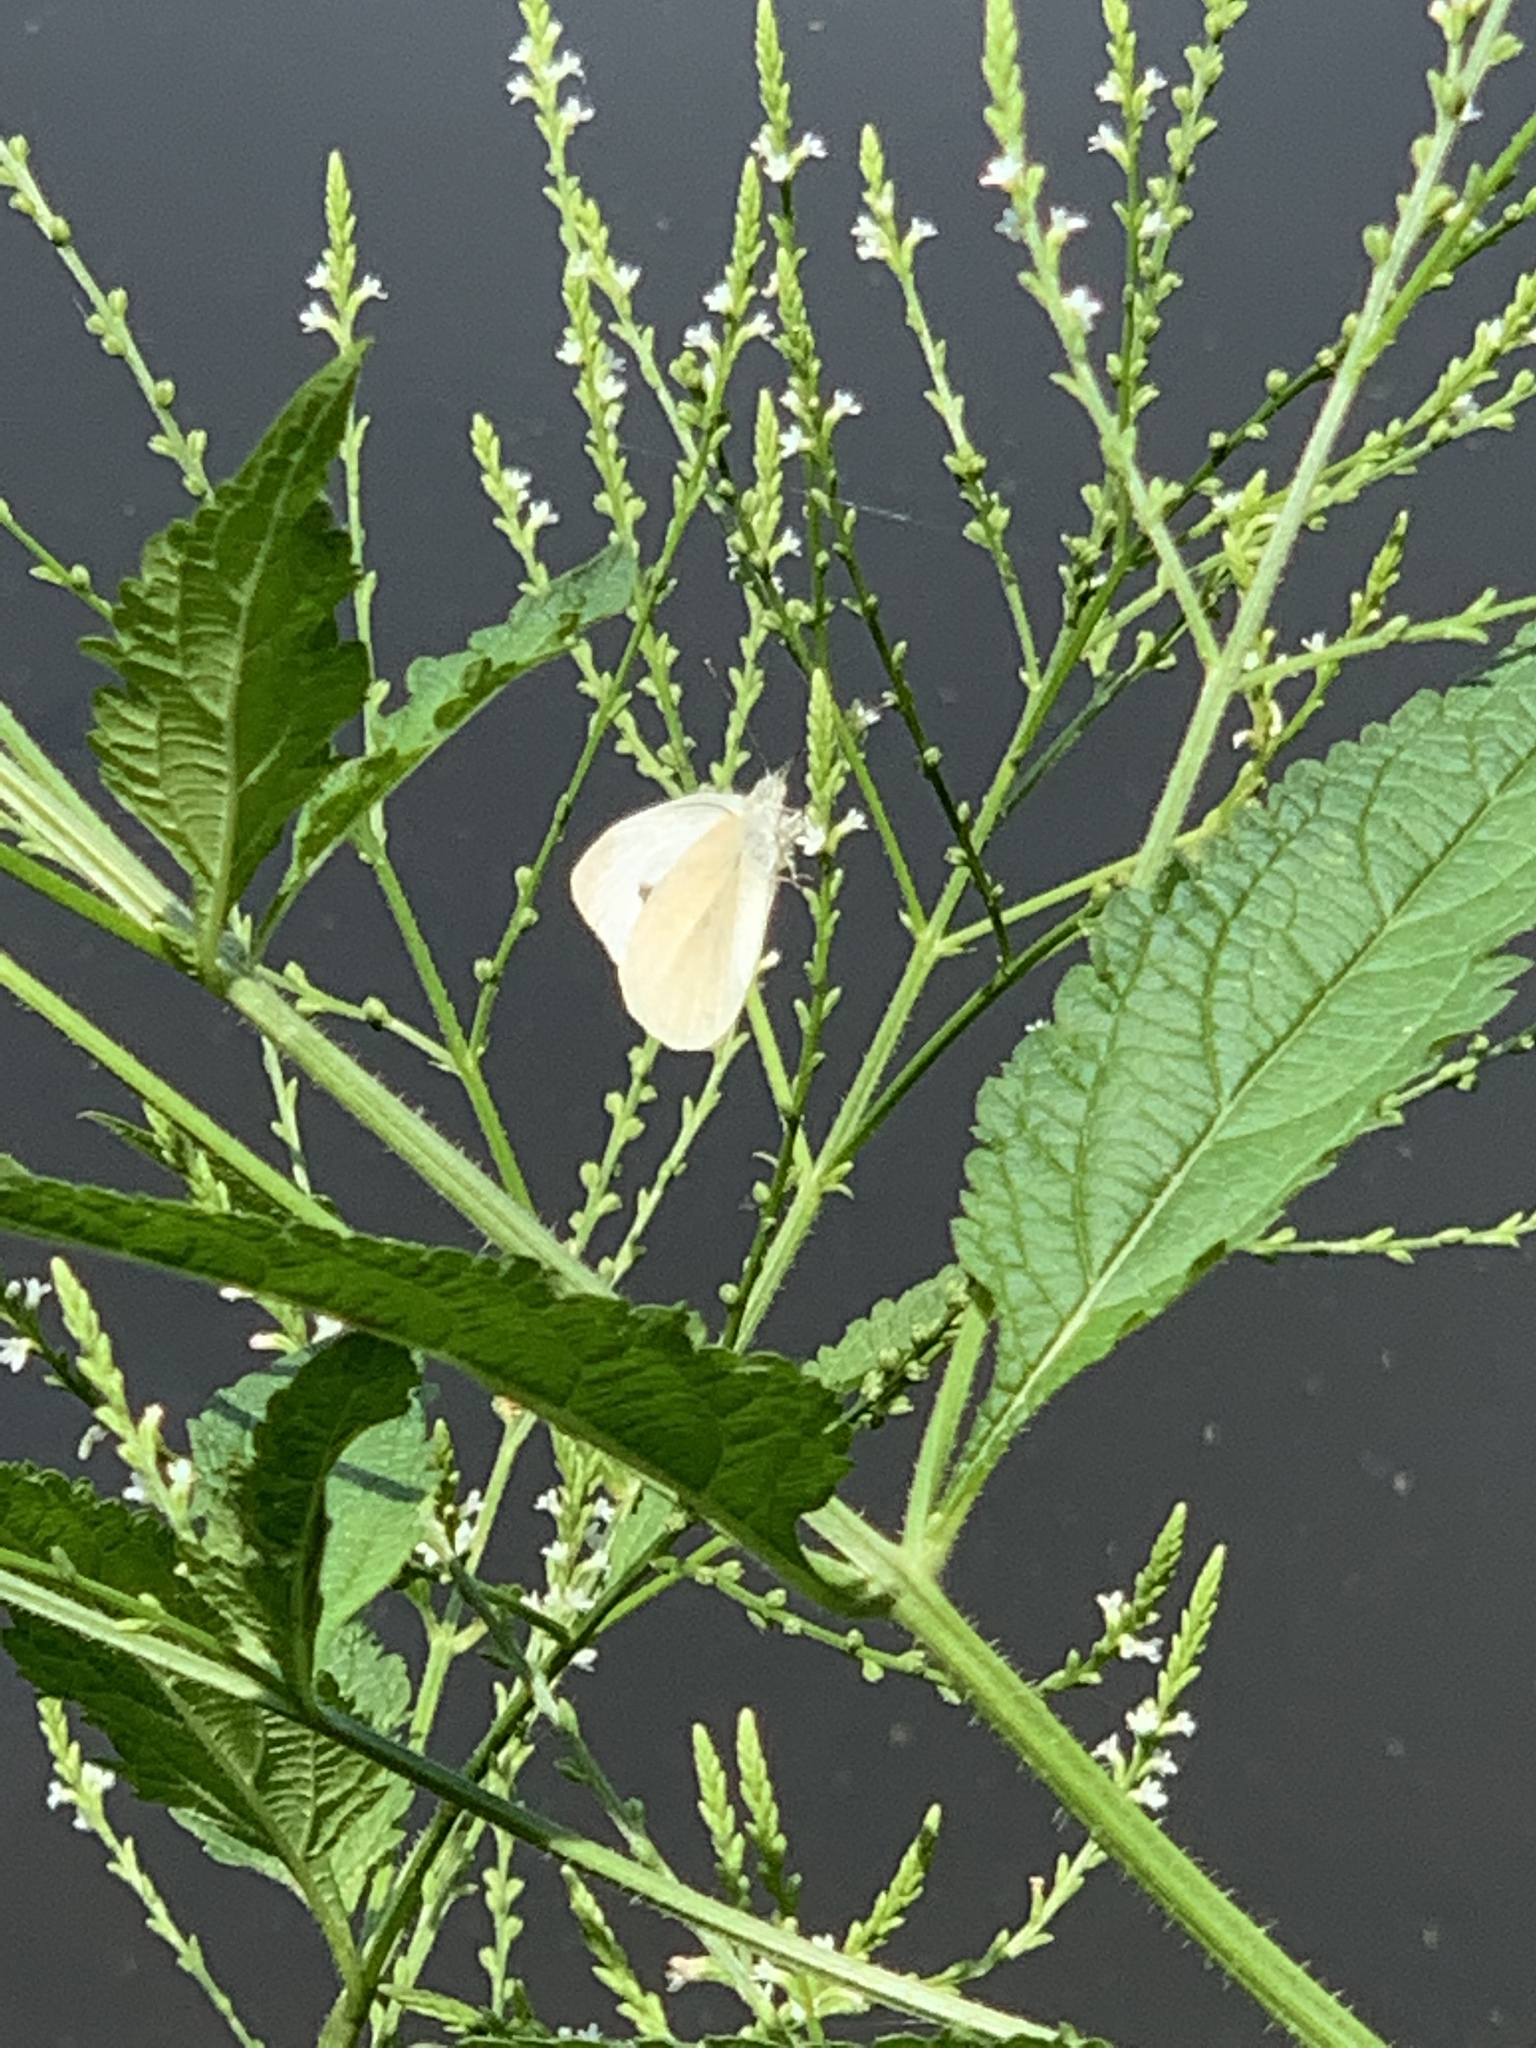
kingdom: Animalia
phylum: Arthropoda
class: Insecta
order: Lepidoptera
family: Pieridae
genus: Pieris
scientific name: Pieris rapae
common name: Small white
